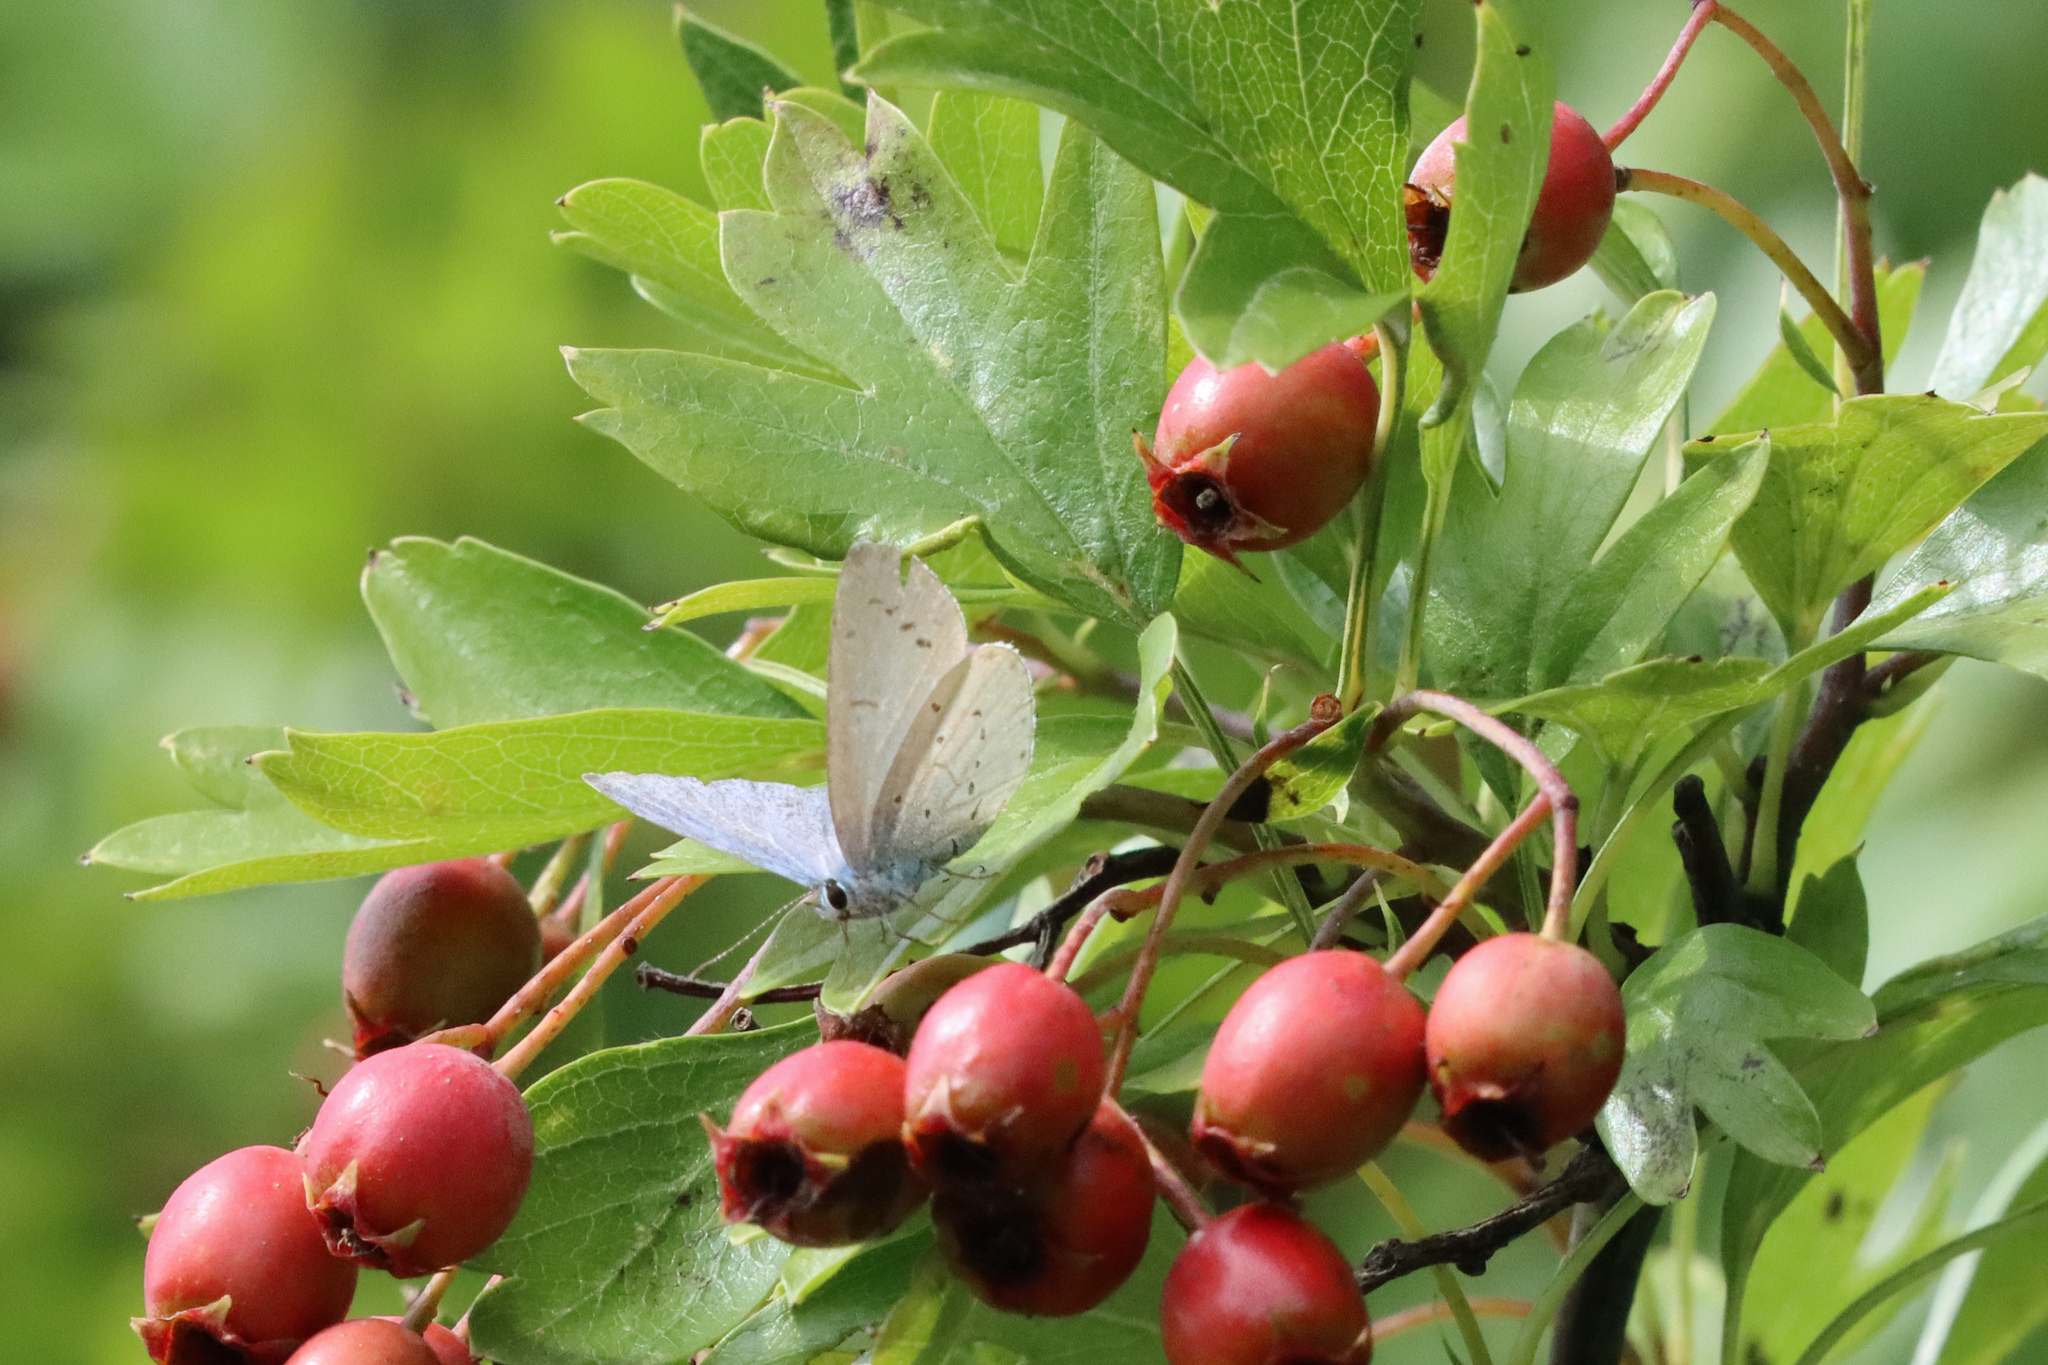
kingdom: Animalia
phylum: Arthropoda
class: Insecta
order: Lepidoptera
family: Lycaenidae
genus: Celastrina
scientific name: Celastrina argiolus
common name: Holly blue
